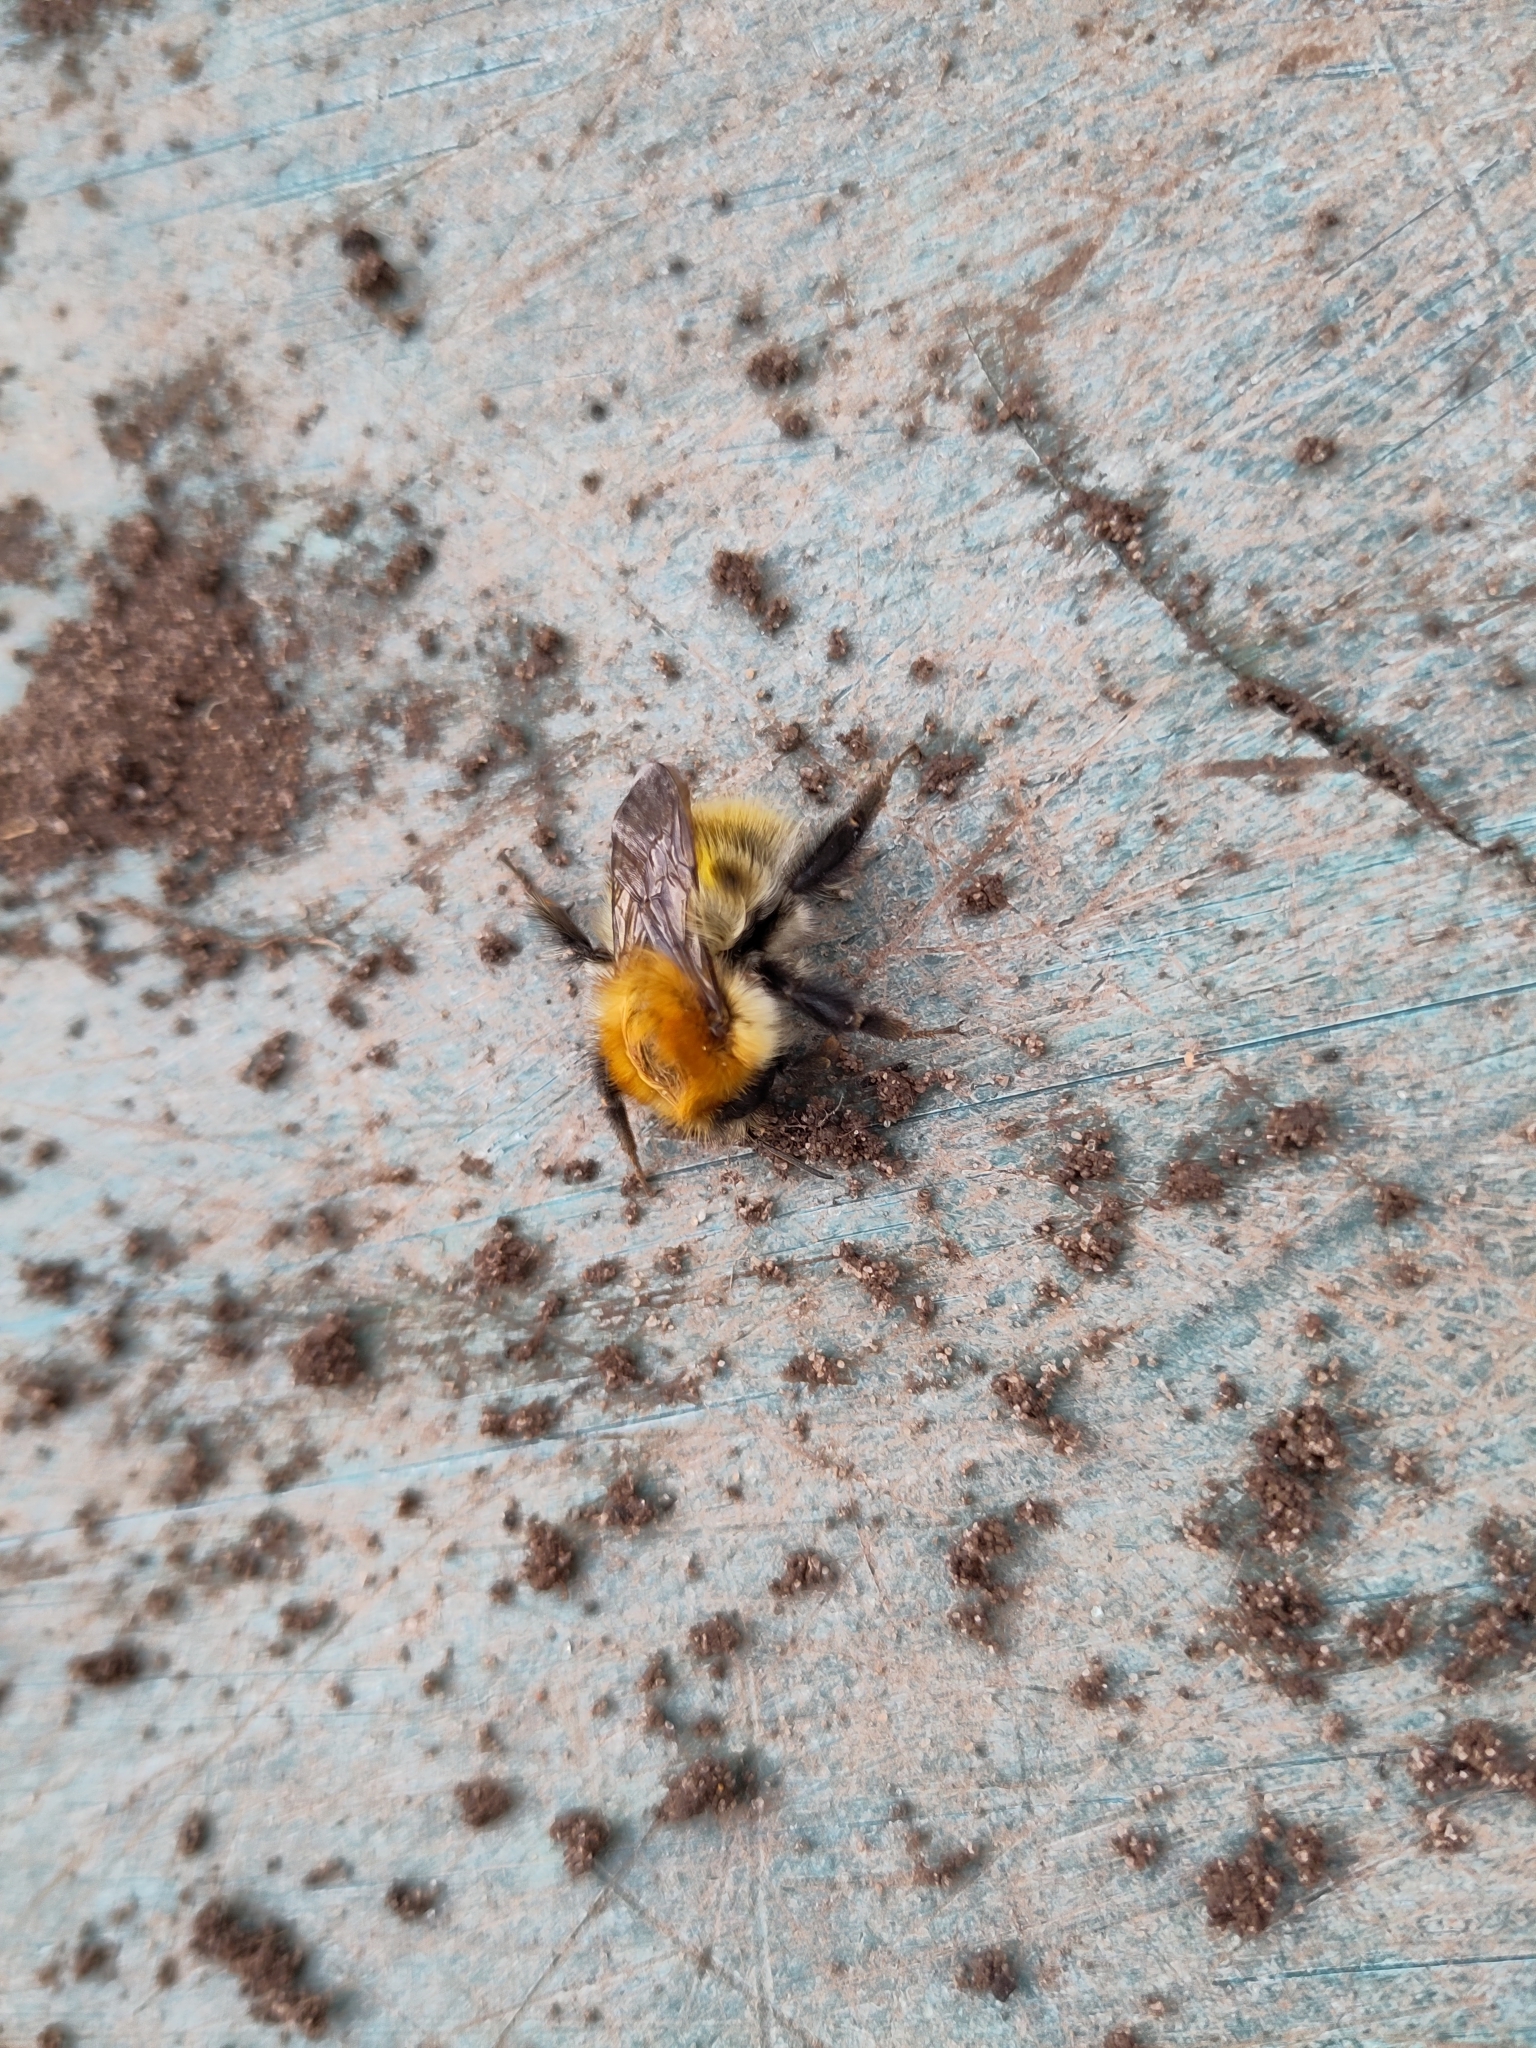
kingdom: Animalia
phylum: Arthropoda
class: Insecta
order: Hymenoptera
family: Apidae
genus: Bombus
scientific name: Bombus pascuorum
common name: Common carder bee
